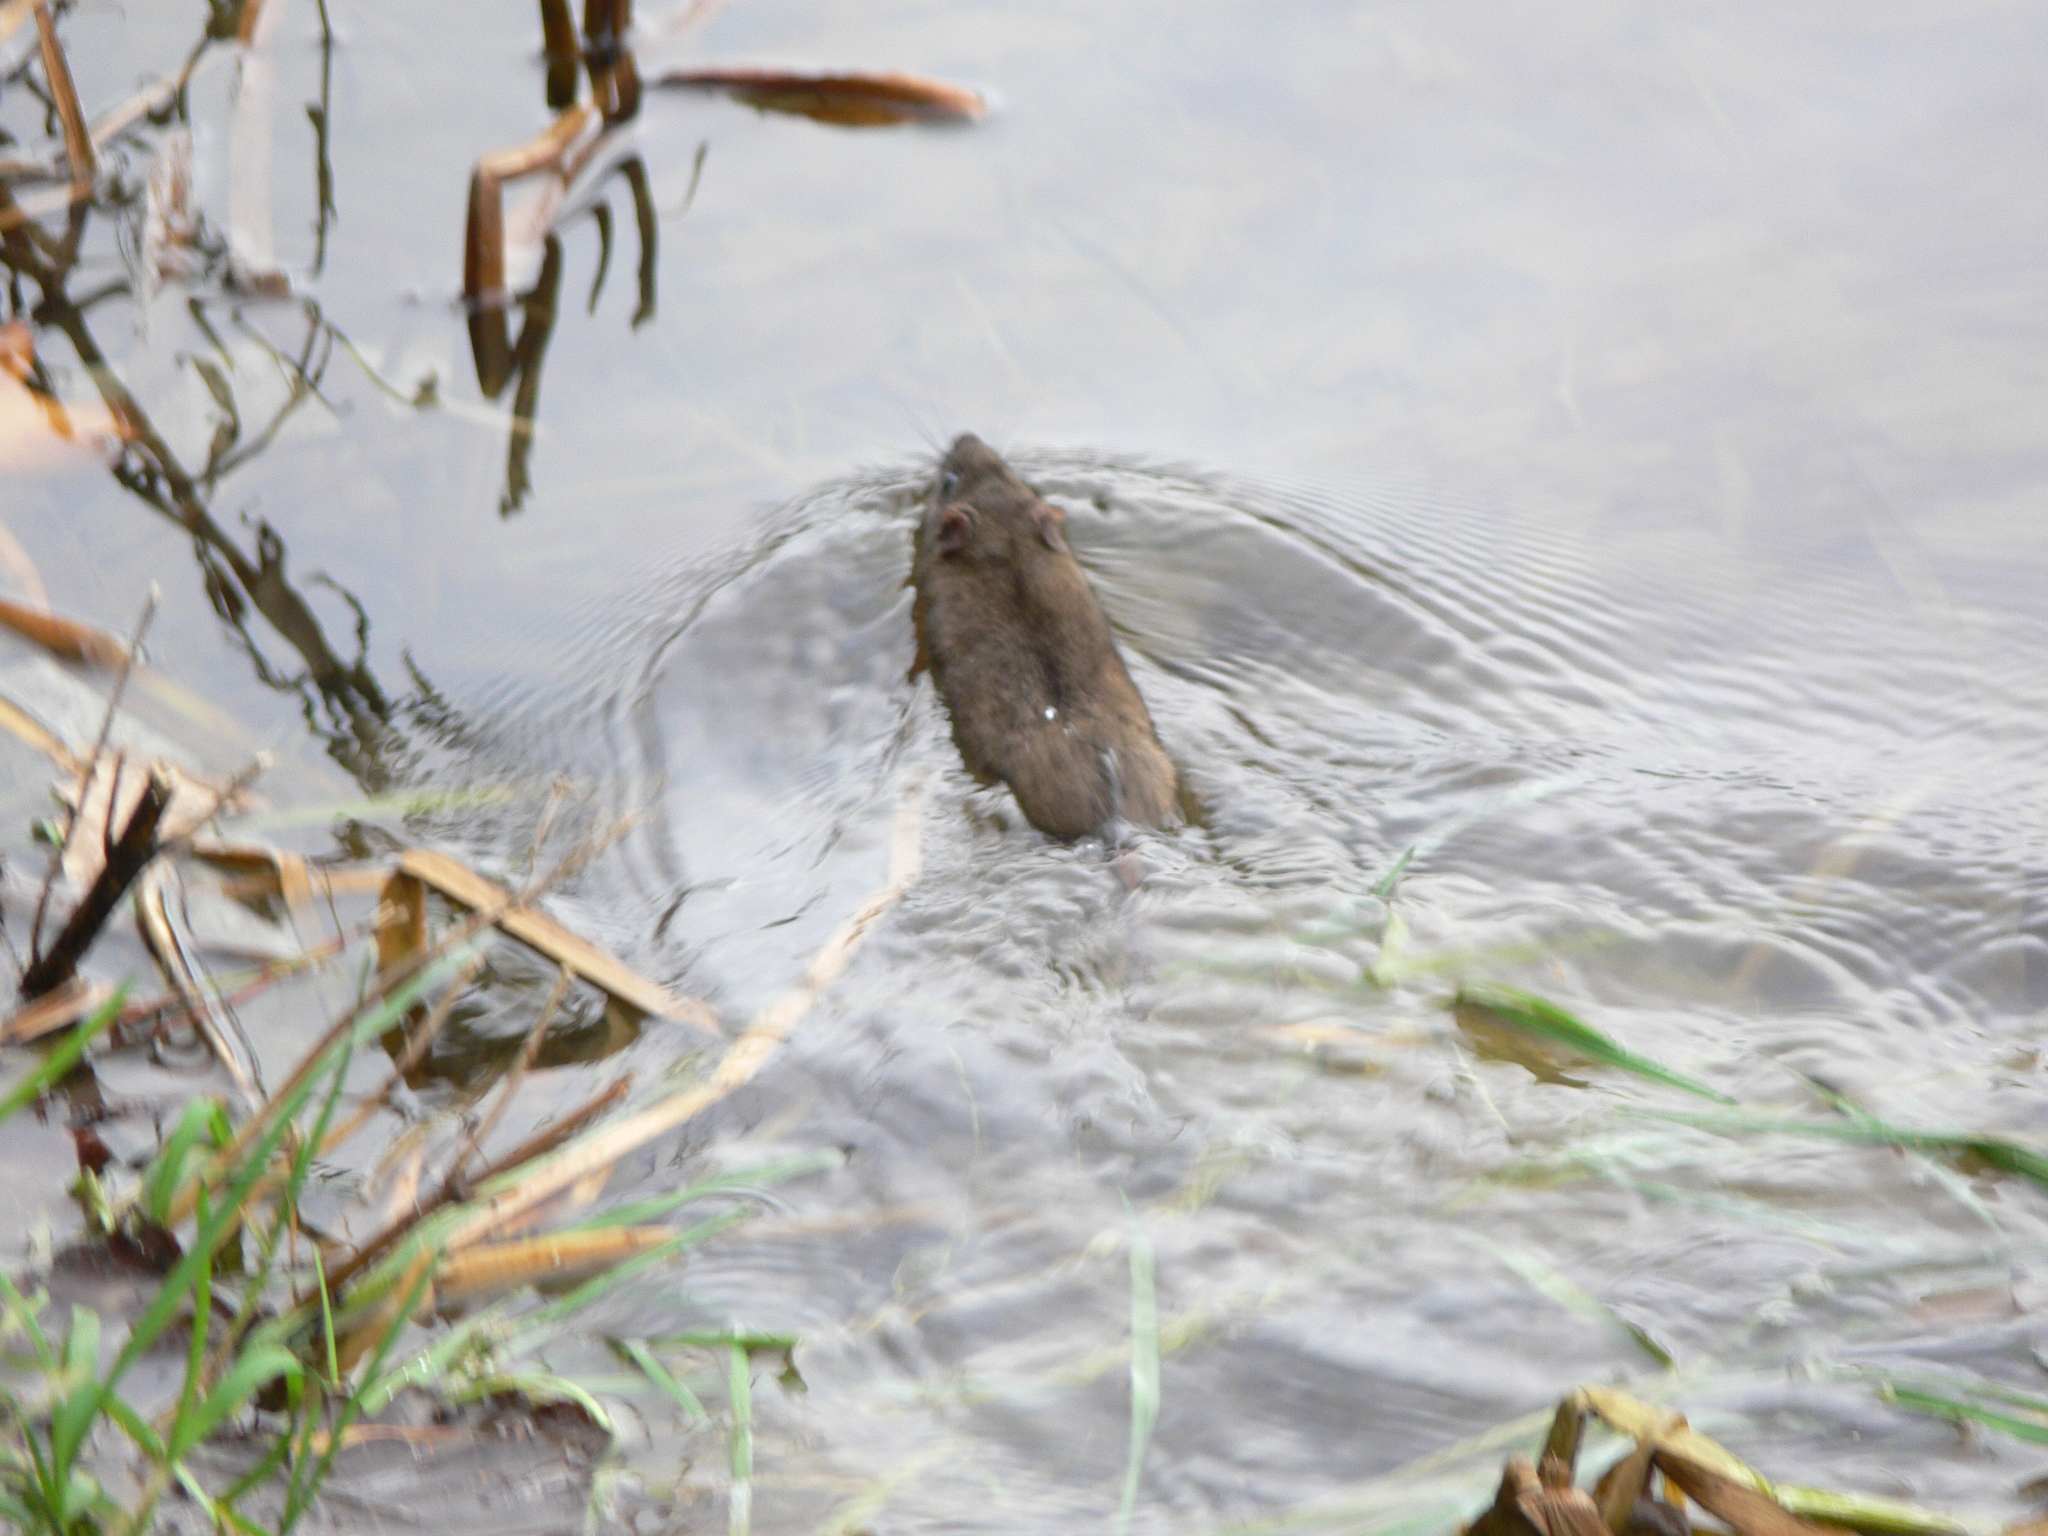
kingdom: Animalia
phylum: Chordata
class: Mammalia
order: Rodentia
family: Muridae
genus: Rattus
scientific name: Rattus norvegicus
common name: Brown rat
